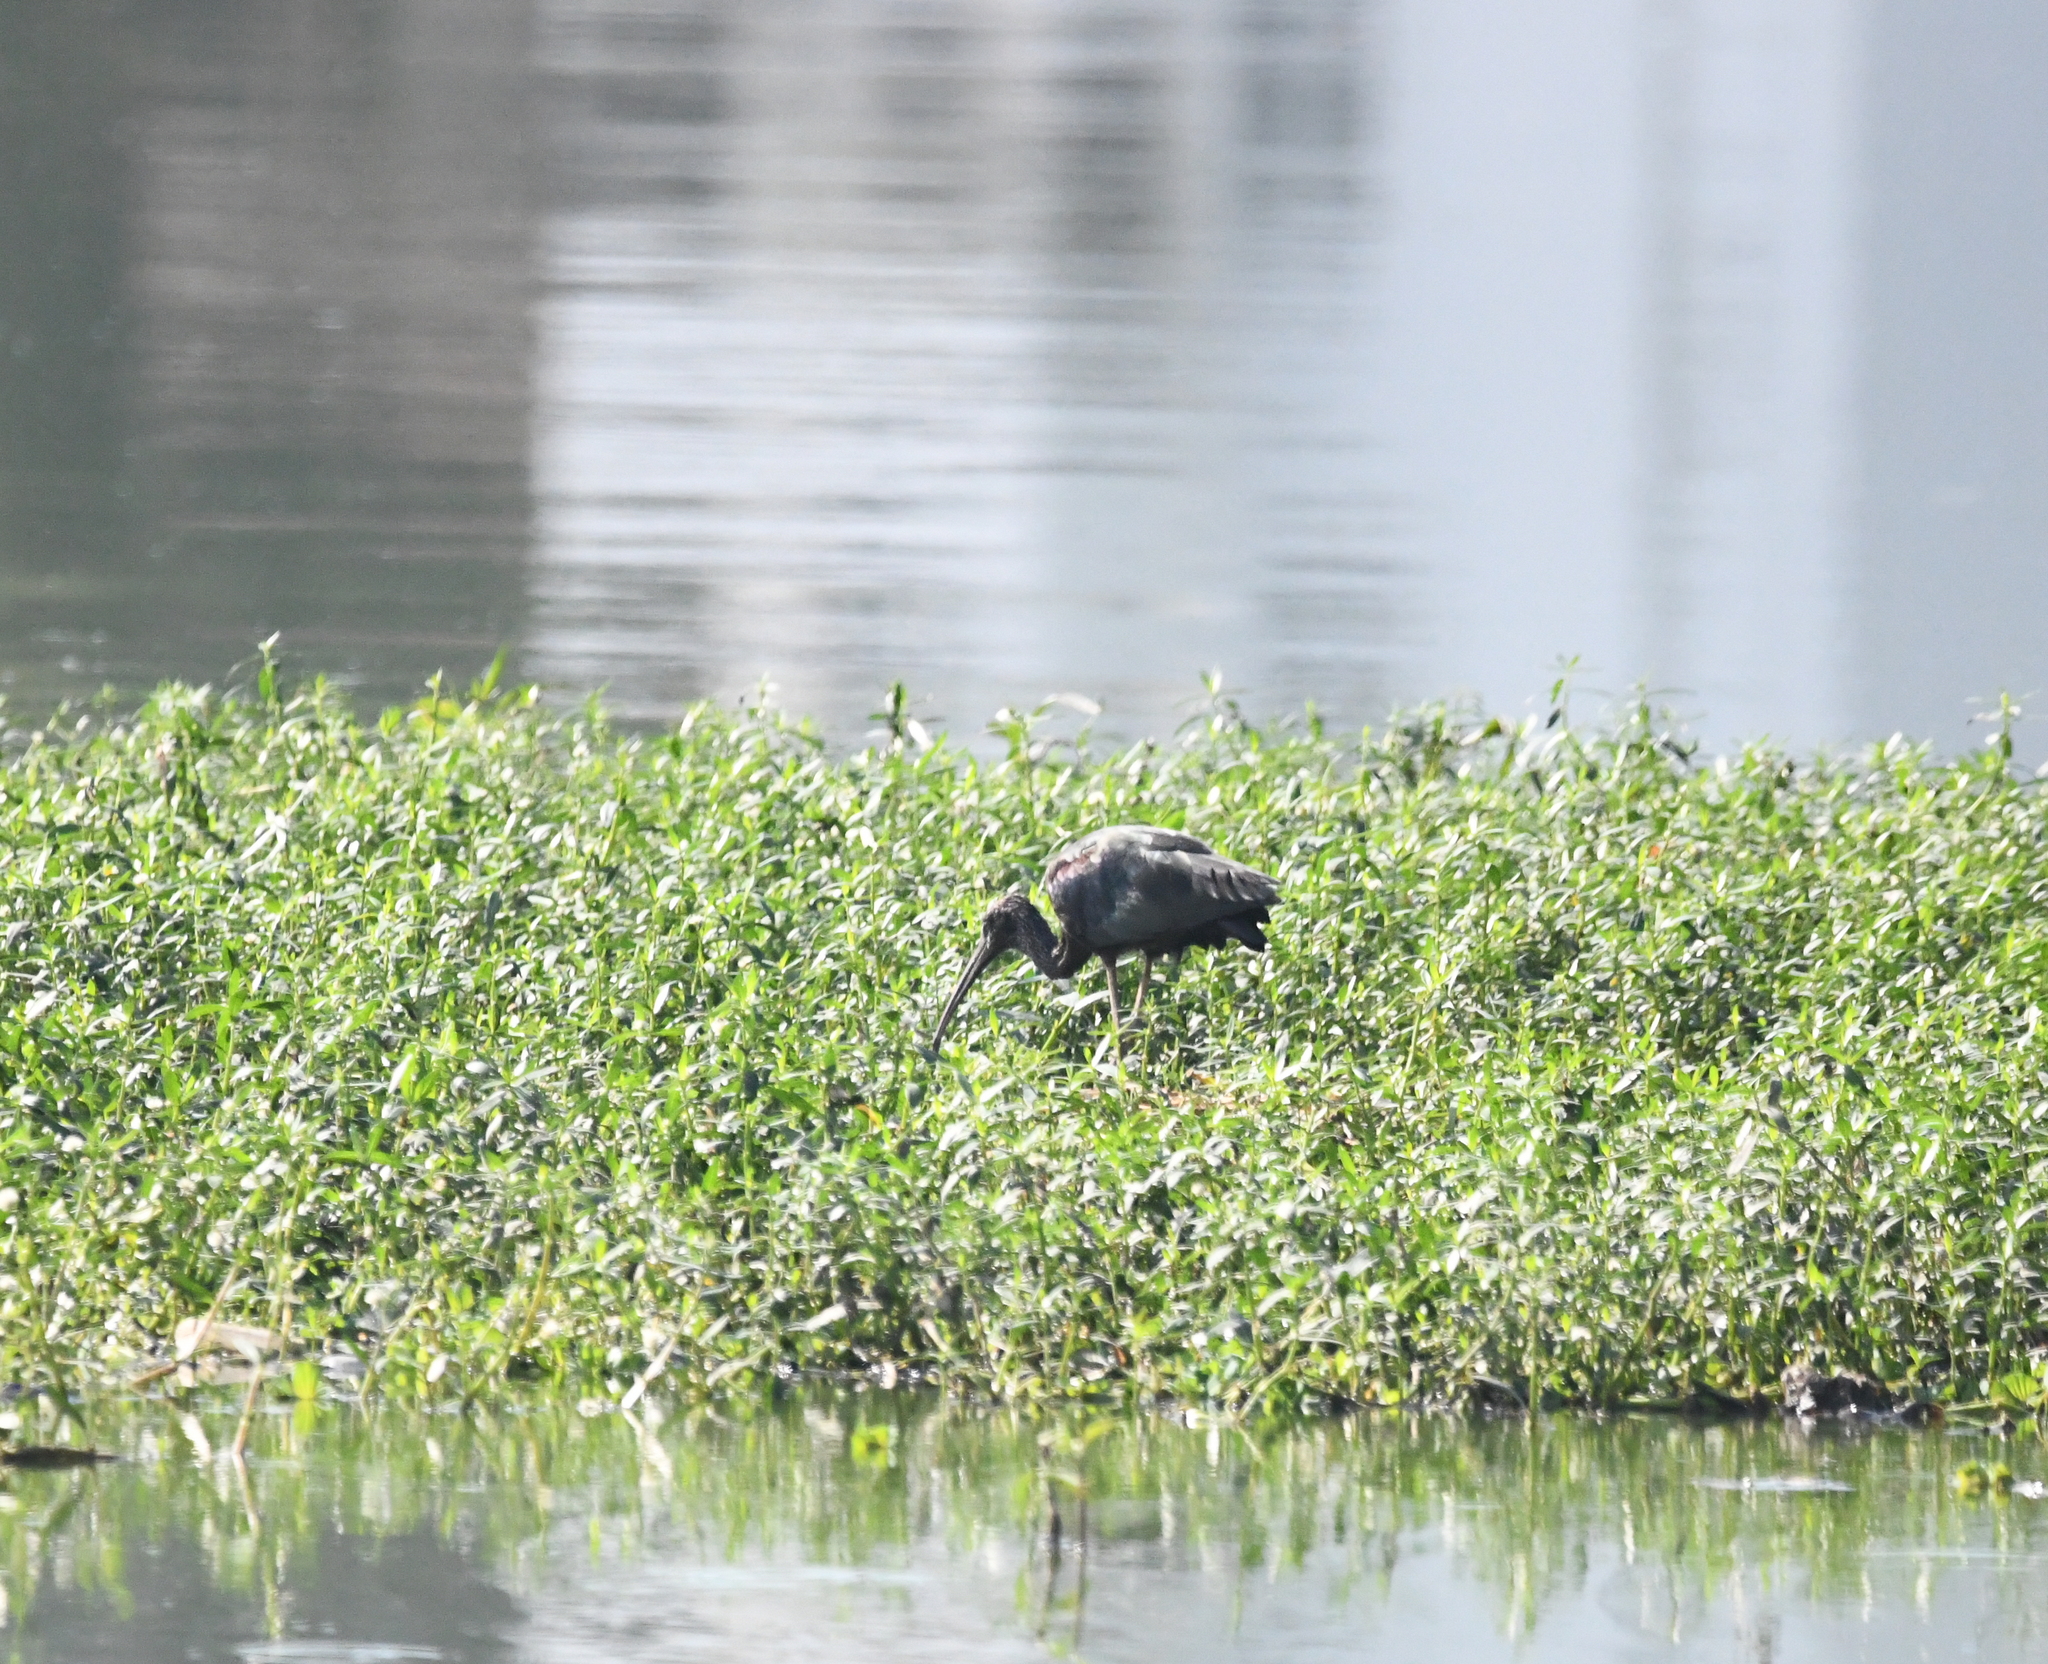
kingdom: Animalia
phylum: Chordata
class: Aves
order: Pelecaniformes
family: Threskiornithidae
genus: Plegadis
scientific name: Plegadis falcinellus
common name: Glossy ibis
